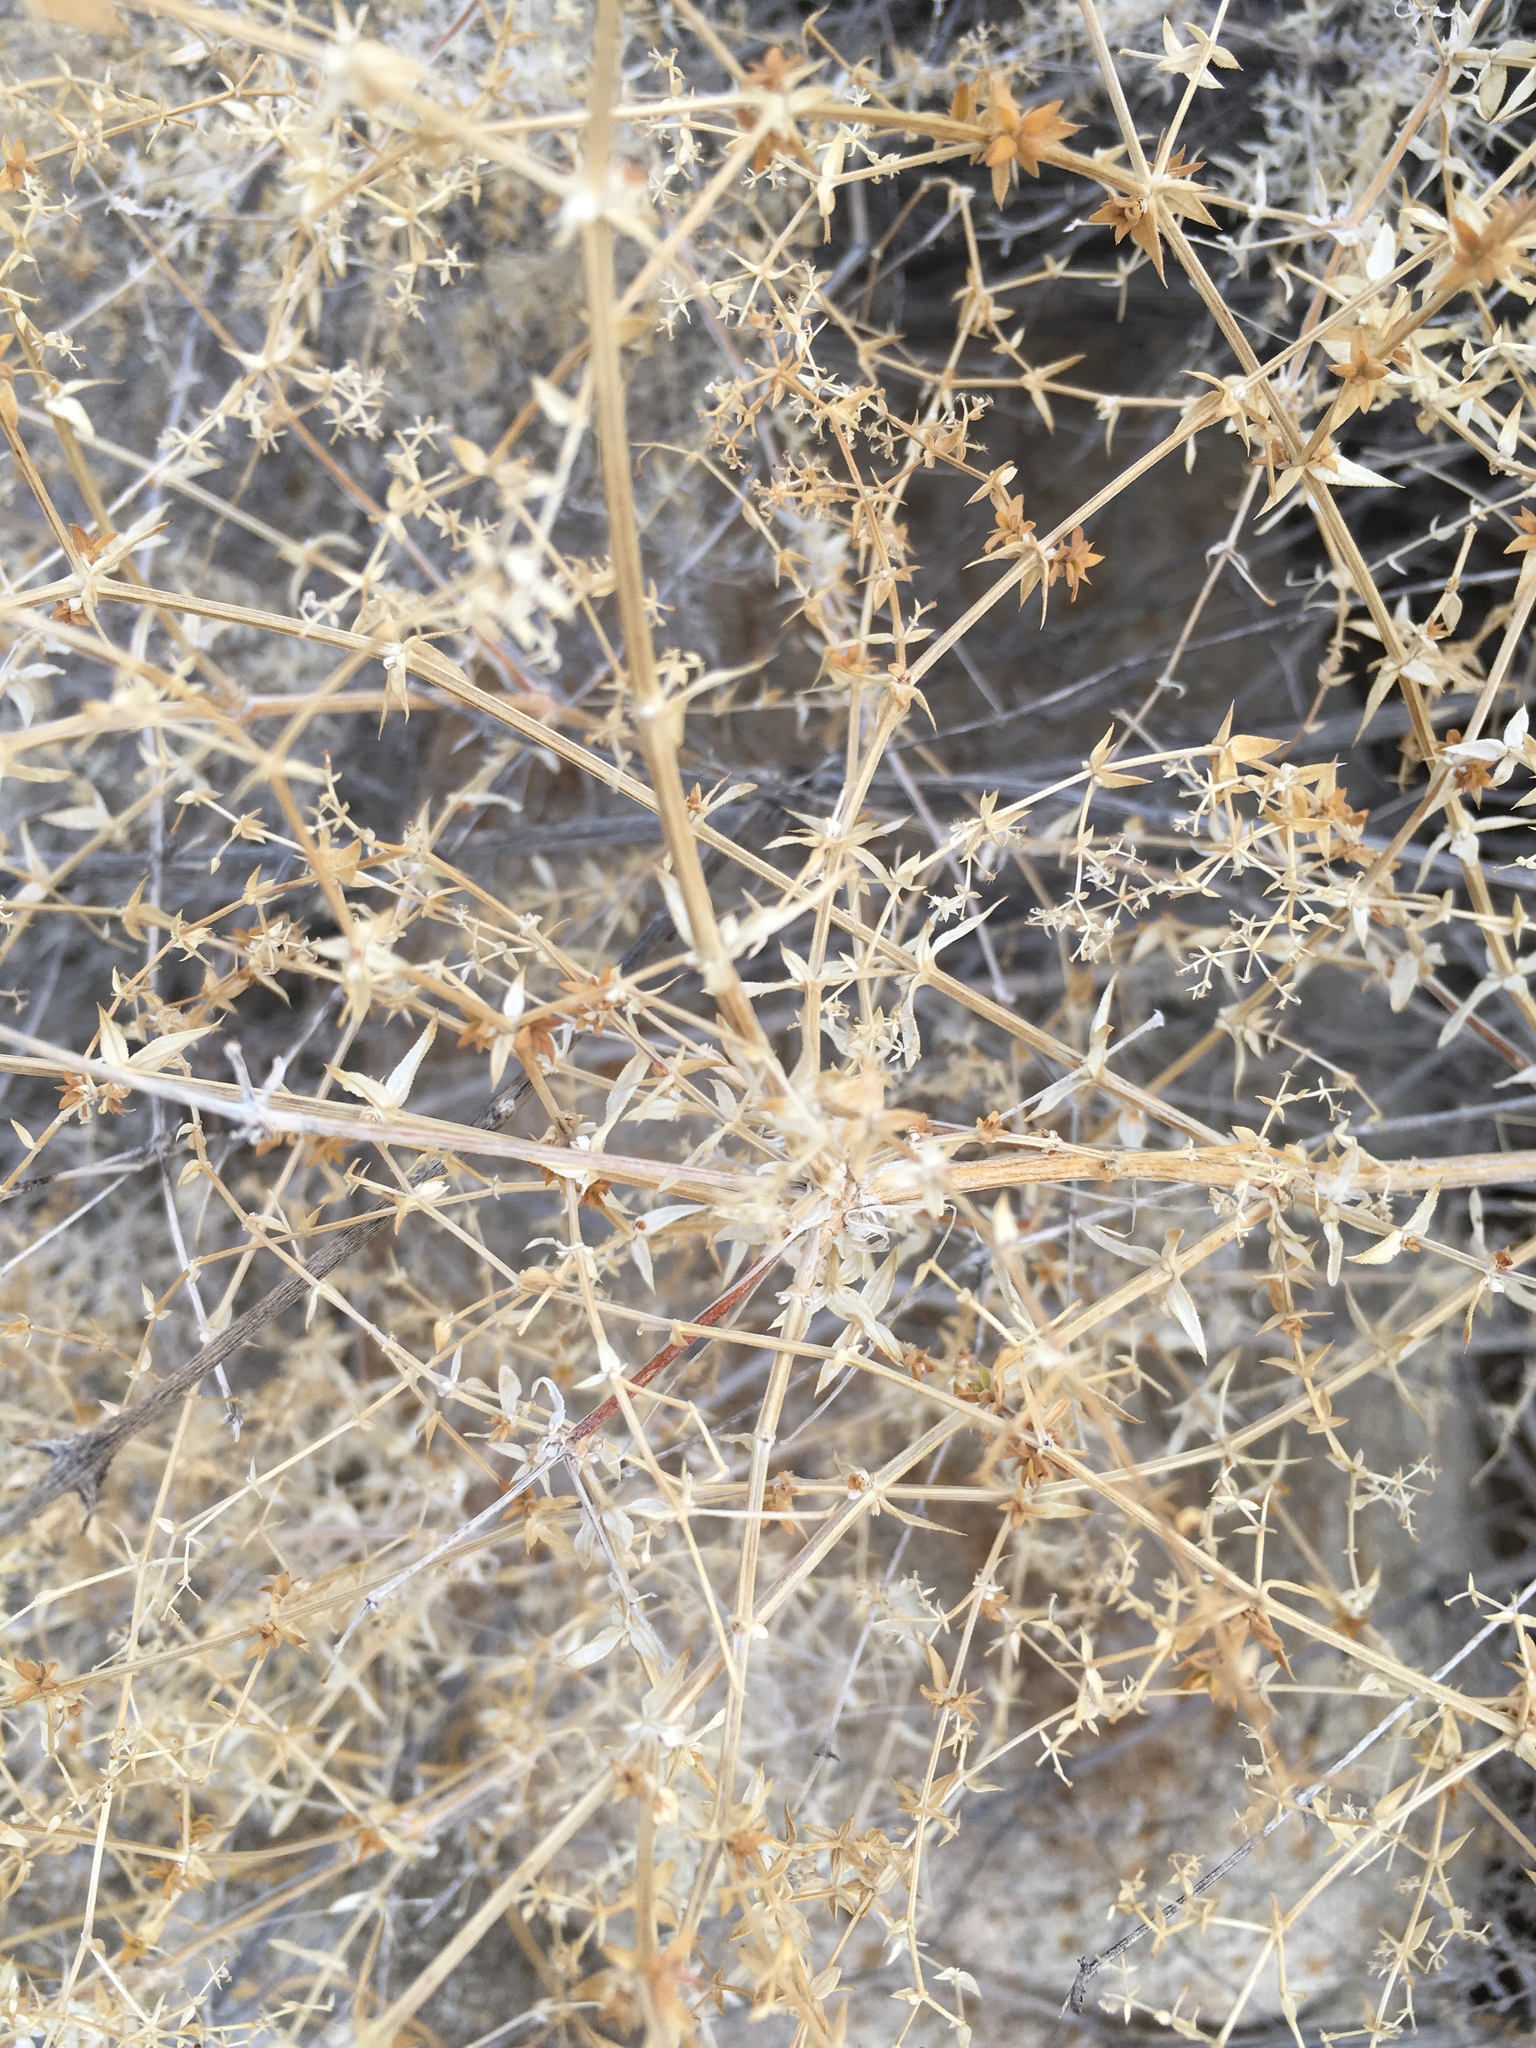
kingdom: Plantae
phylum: Tracheophyta
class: Magnoliopsida
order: Gentianales
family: Rubiaceae
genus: Galium
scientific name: Galium stellatum
